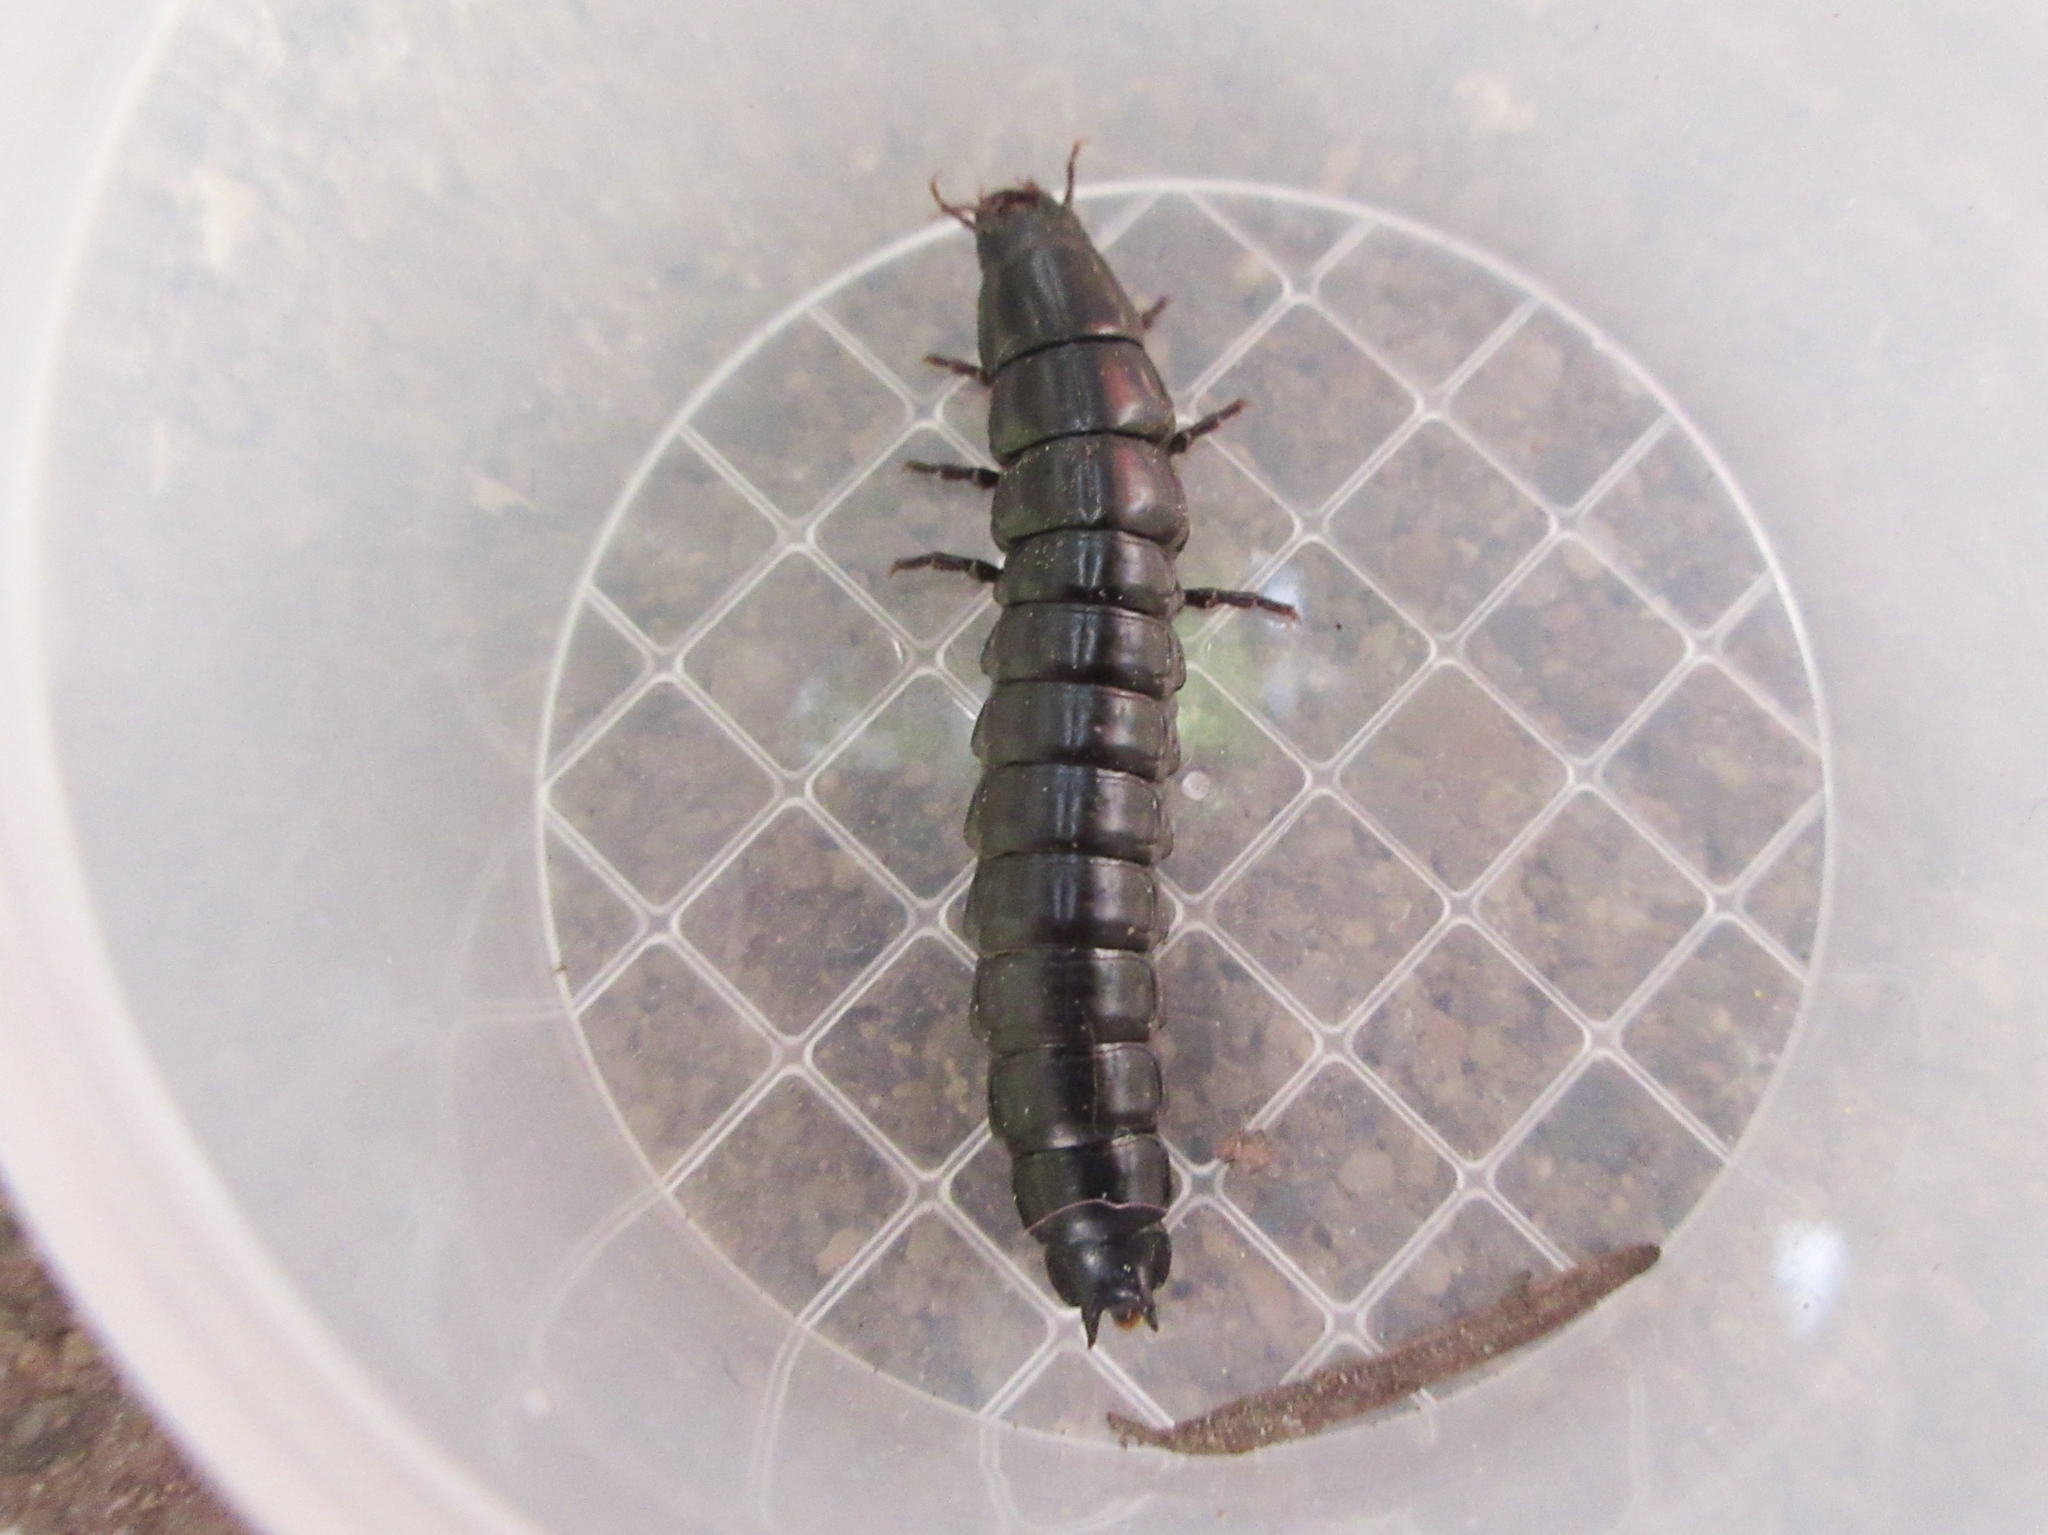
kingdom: Animalia
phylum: Arthropoda
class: Insecta
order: Coleoptera
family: Carabidae
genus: Carabus
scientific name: Carabus
